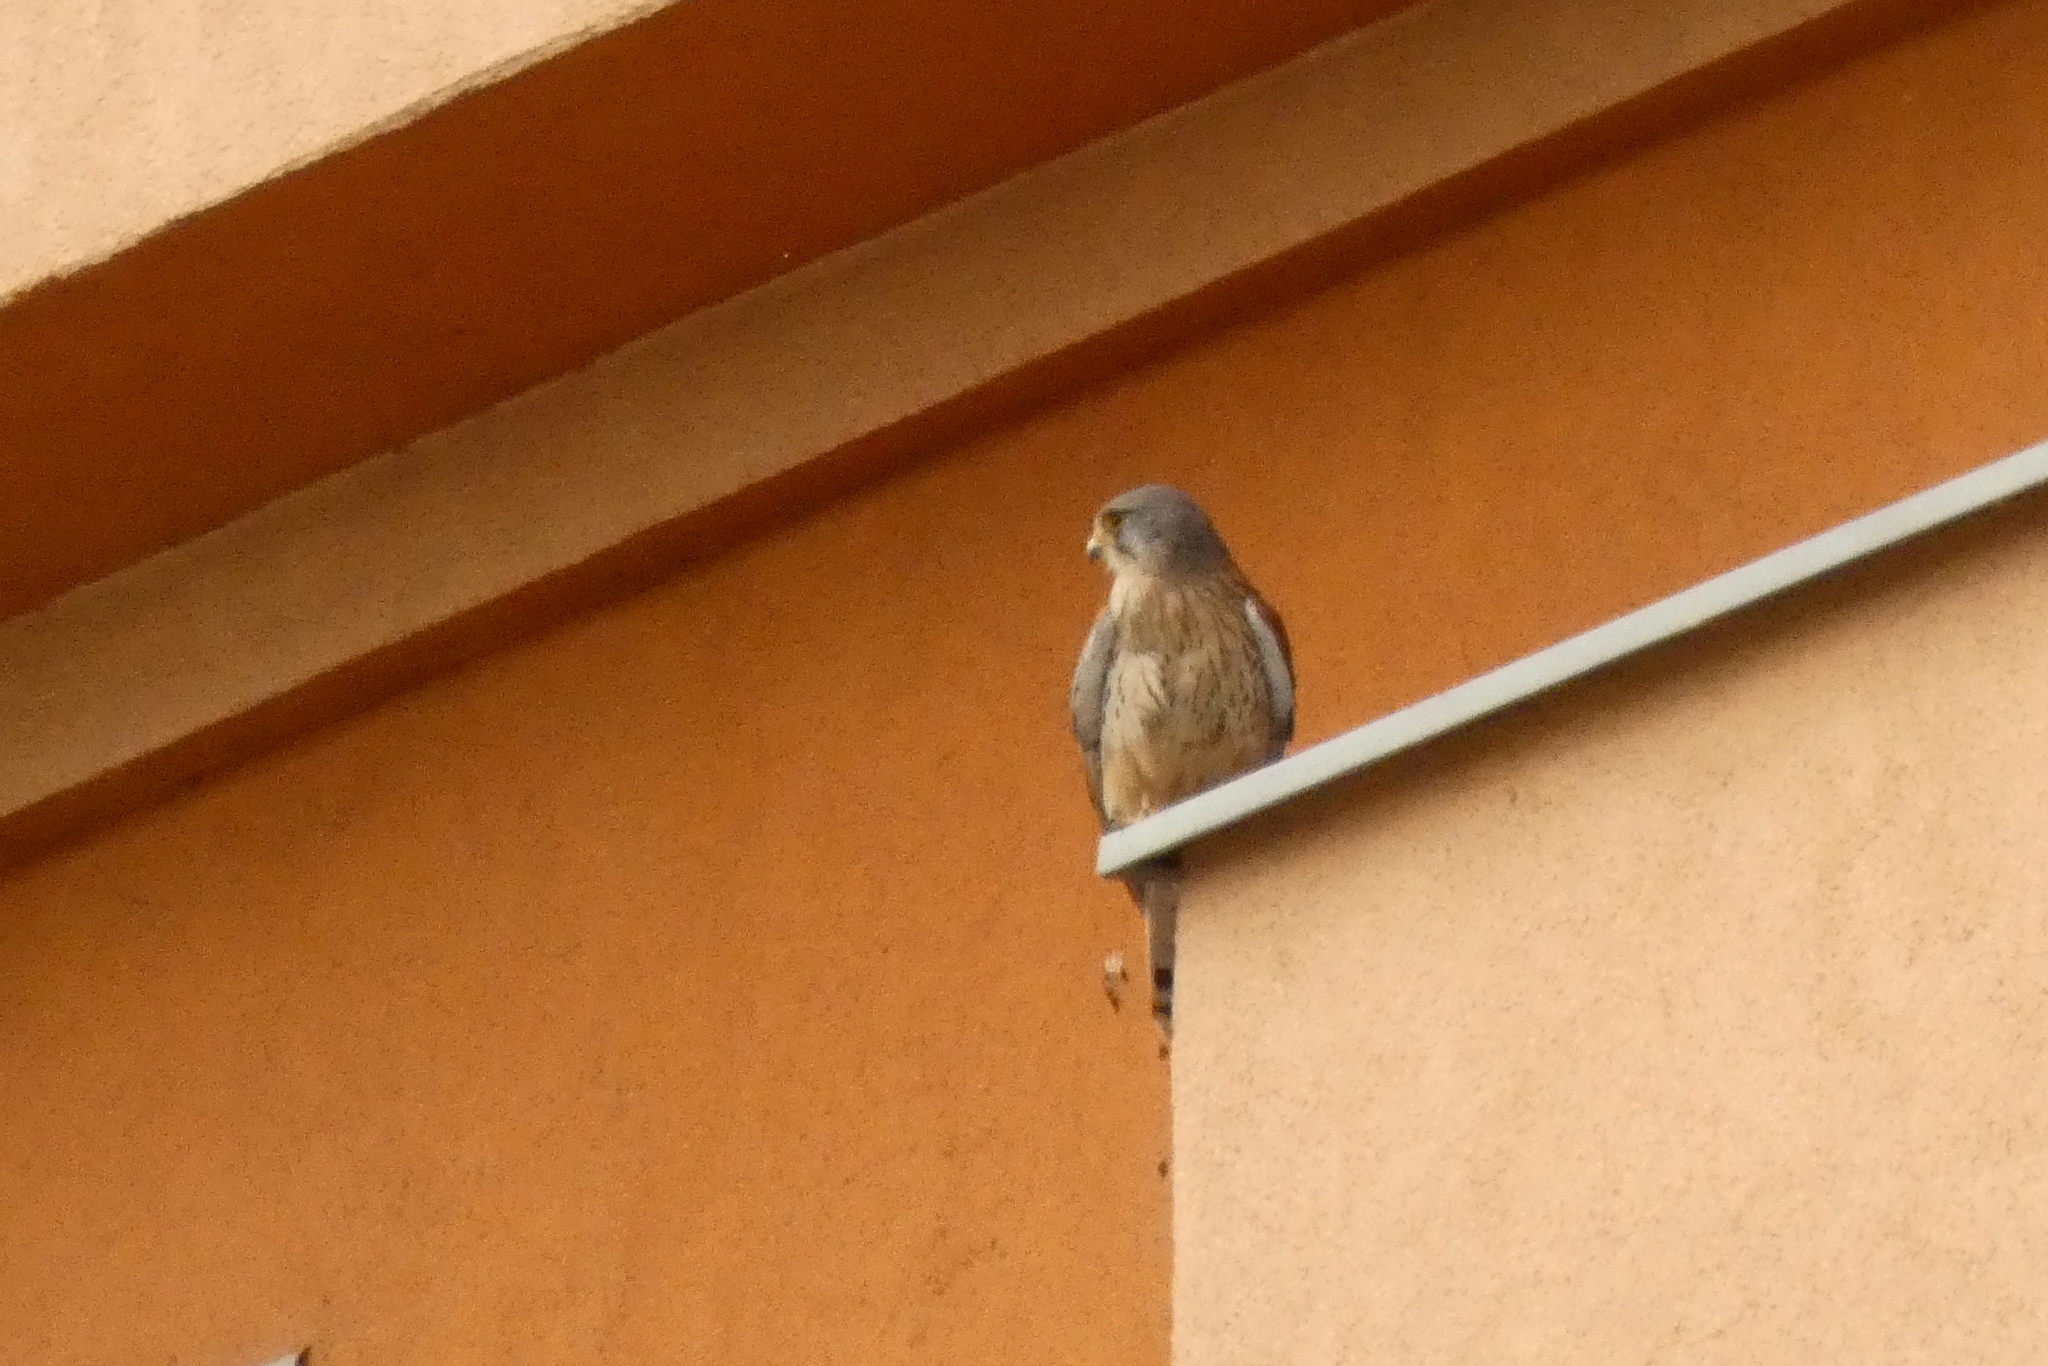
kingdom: Animalia
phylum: Chordata
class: Aves
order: Falconiformes
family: Falconidae
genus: Falco
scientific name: Falco tinnunculus
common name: Common kestrel
